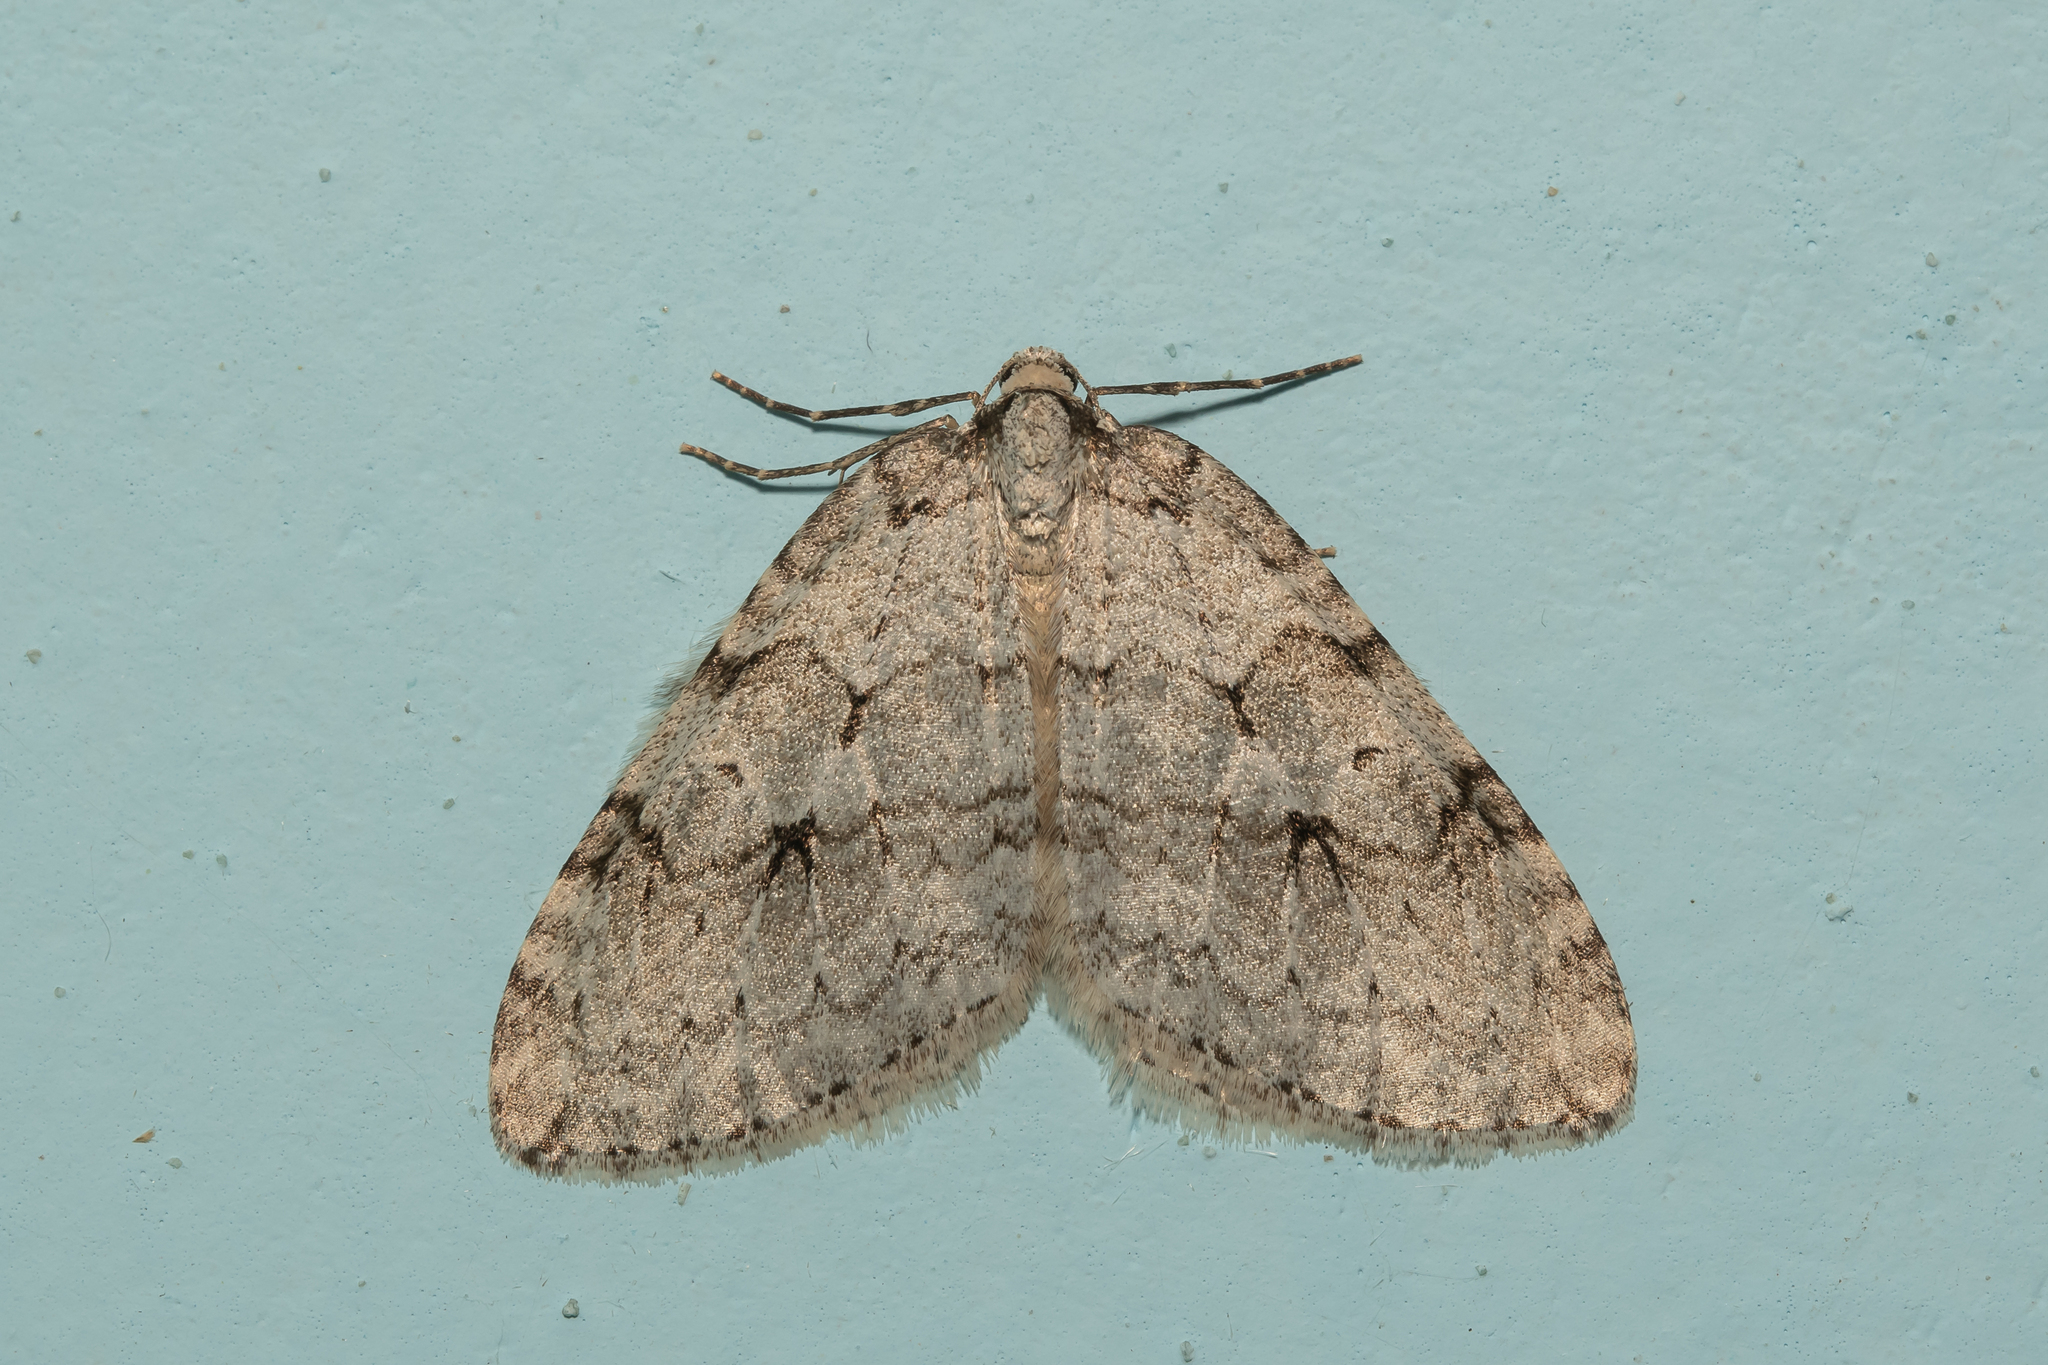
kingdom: Animalia
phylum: Arthropoda
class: Insecta
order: Lepidoptera
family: Geometridae
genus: Epirrita
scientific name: Epirrita autumnata
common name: Autumnal moth
